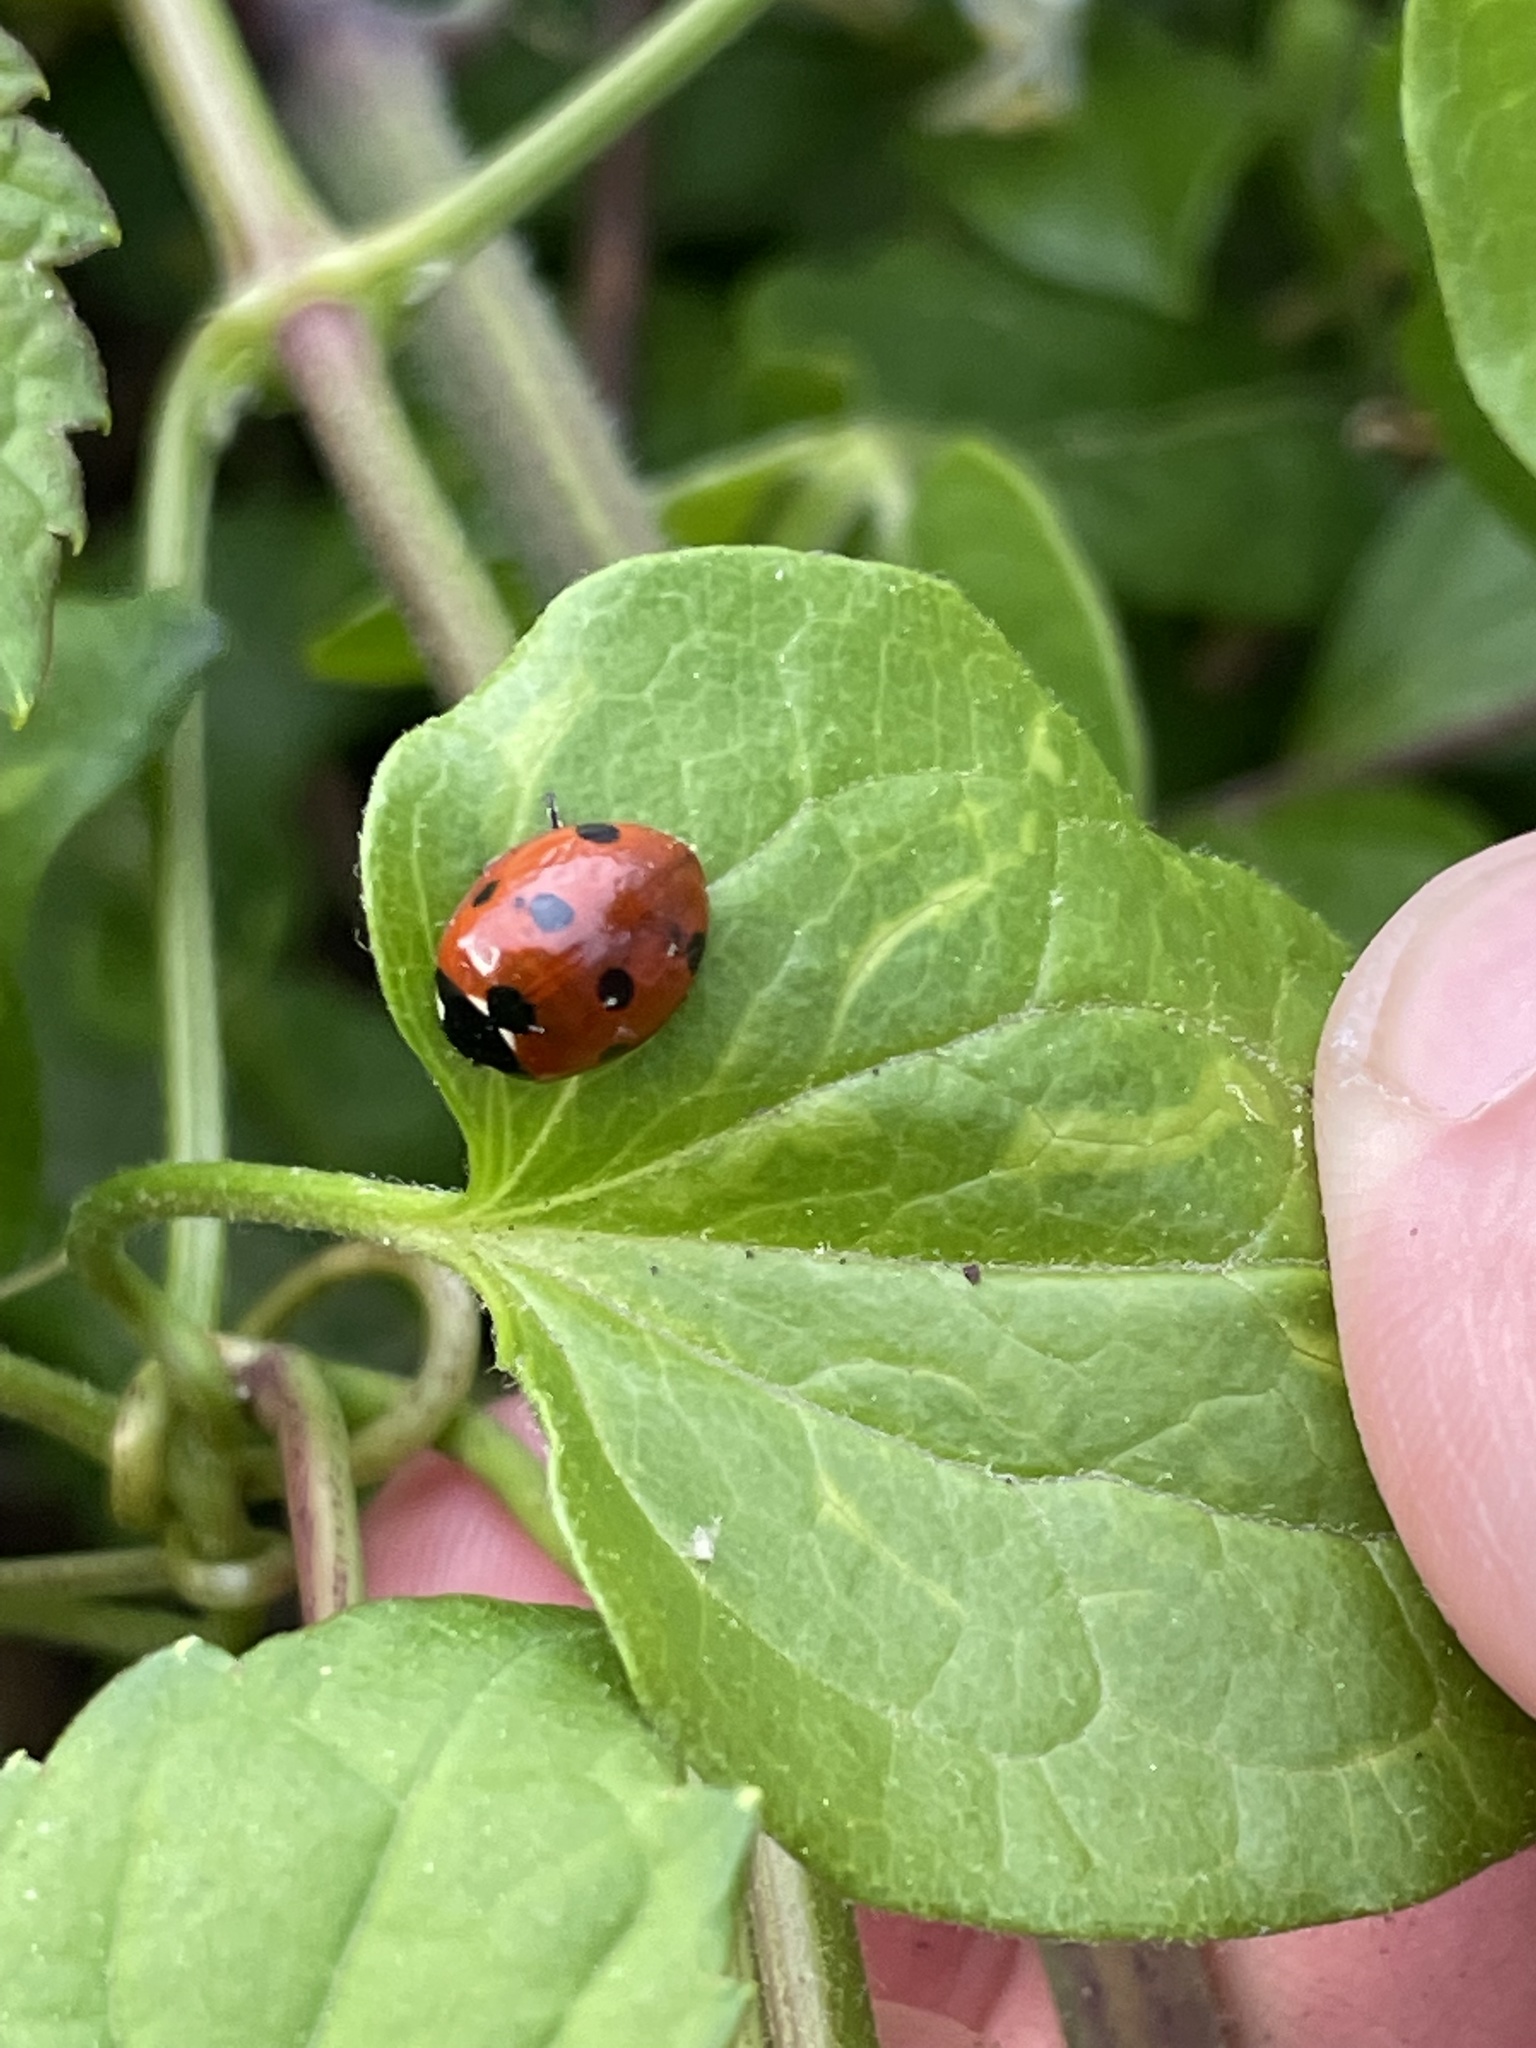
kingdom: Animalia
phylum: Arthropoda
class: Insecta
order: Coleoptera
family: Coccinellidae
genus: Coccinella
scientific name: Coccinella septempunctata
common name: Sevenspotted lady beetle
